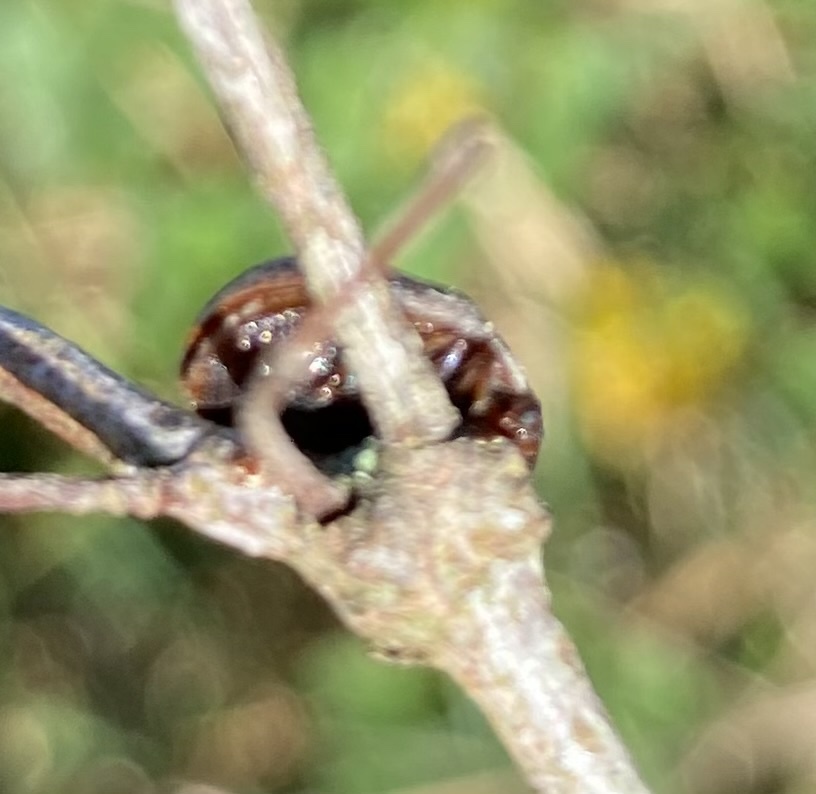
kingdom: Animalia
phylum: Arthropoda
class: Insecta
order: Coleoptera
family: Chrysomelidae
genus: Trachymela
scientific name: Trachymela sloanei
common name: Australian tortoise beetle
